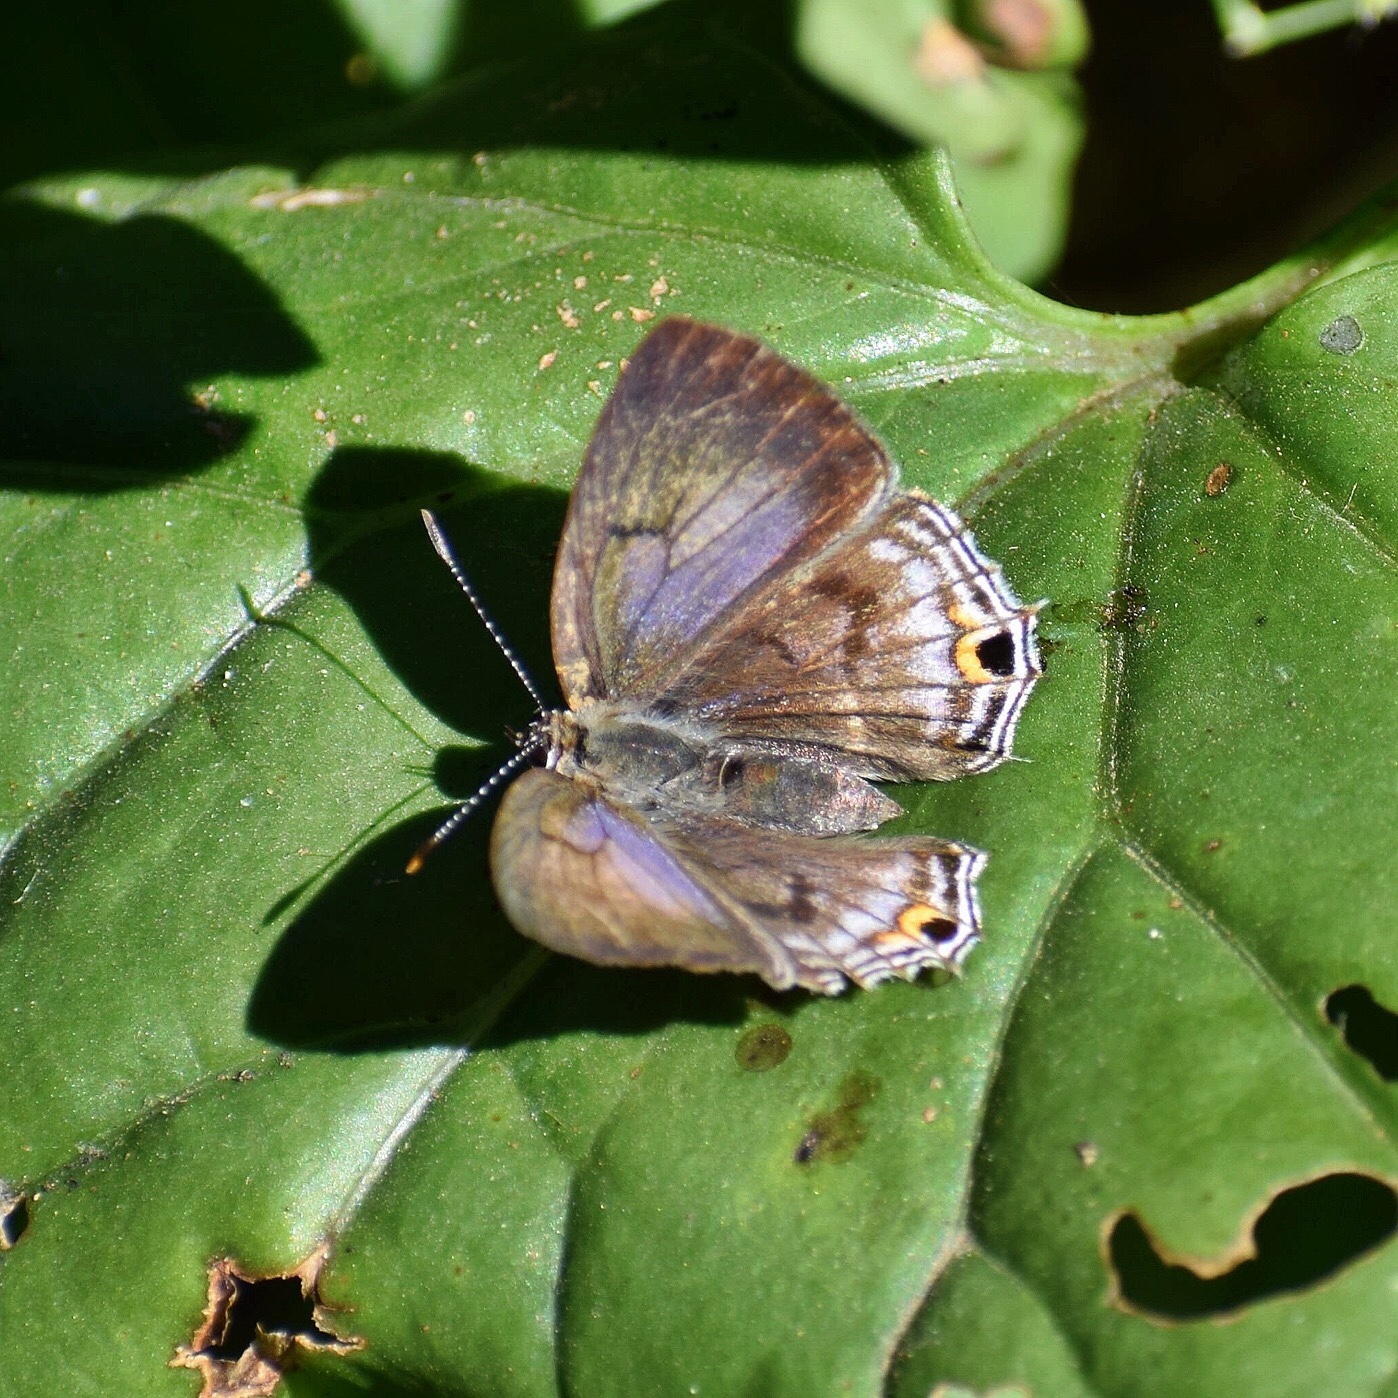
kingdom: Animalia
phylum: Arthropoda
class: Insecta
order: Lepidoptera
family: Lycaenidae
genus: Anthene
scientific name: Anthene lemnos
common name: Large ciliate blue
